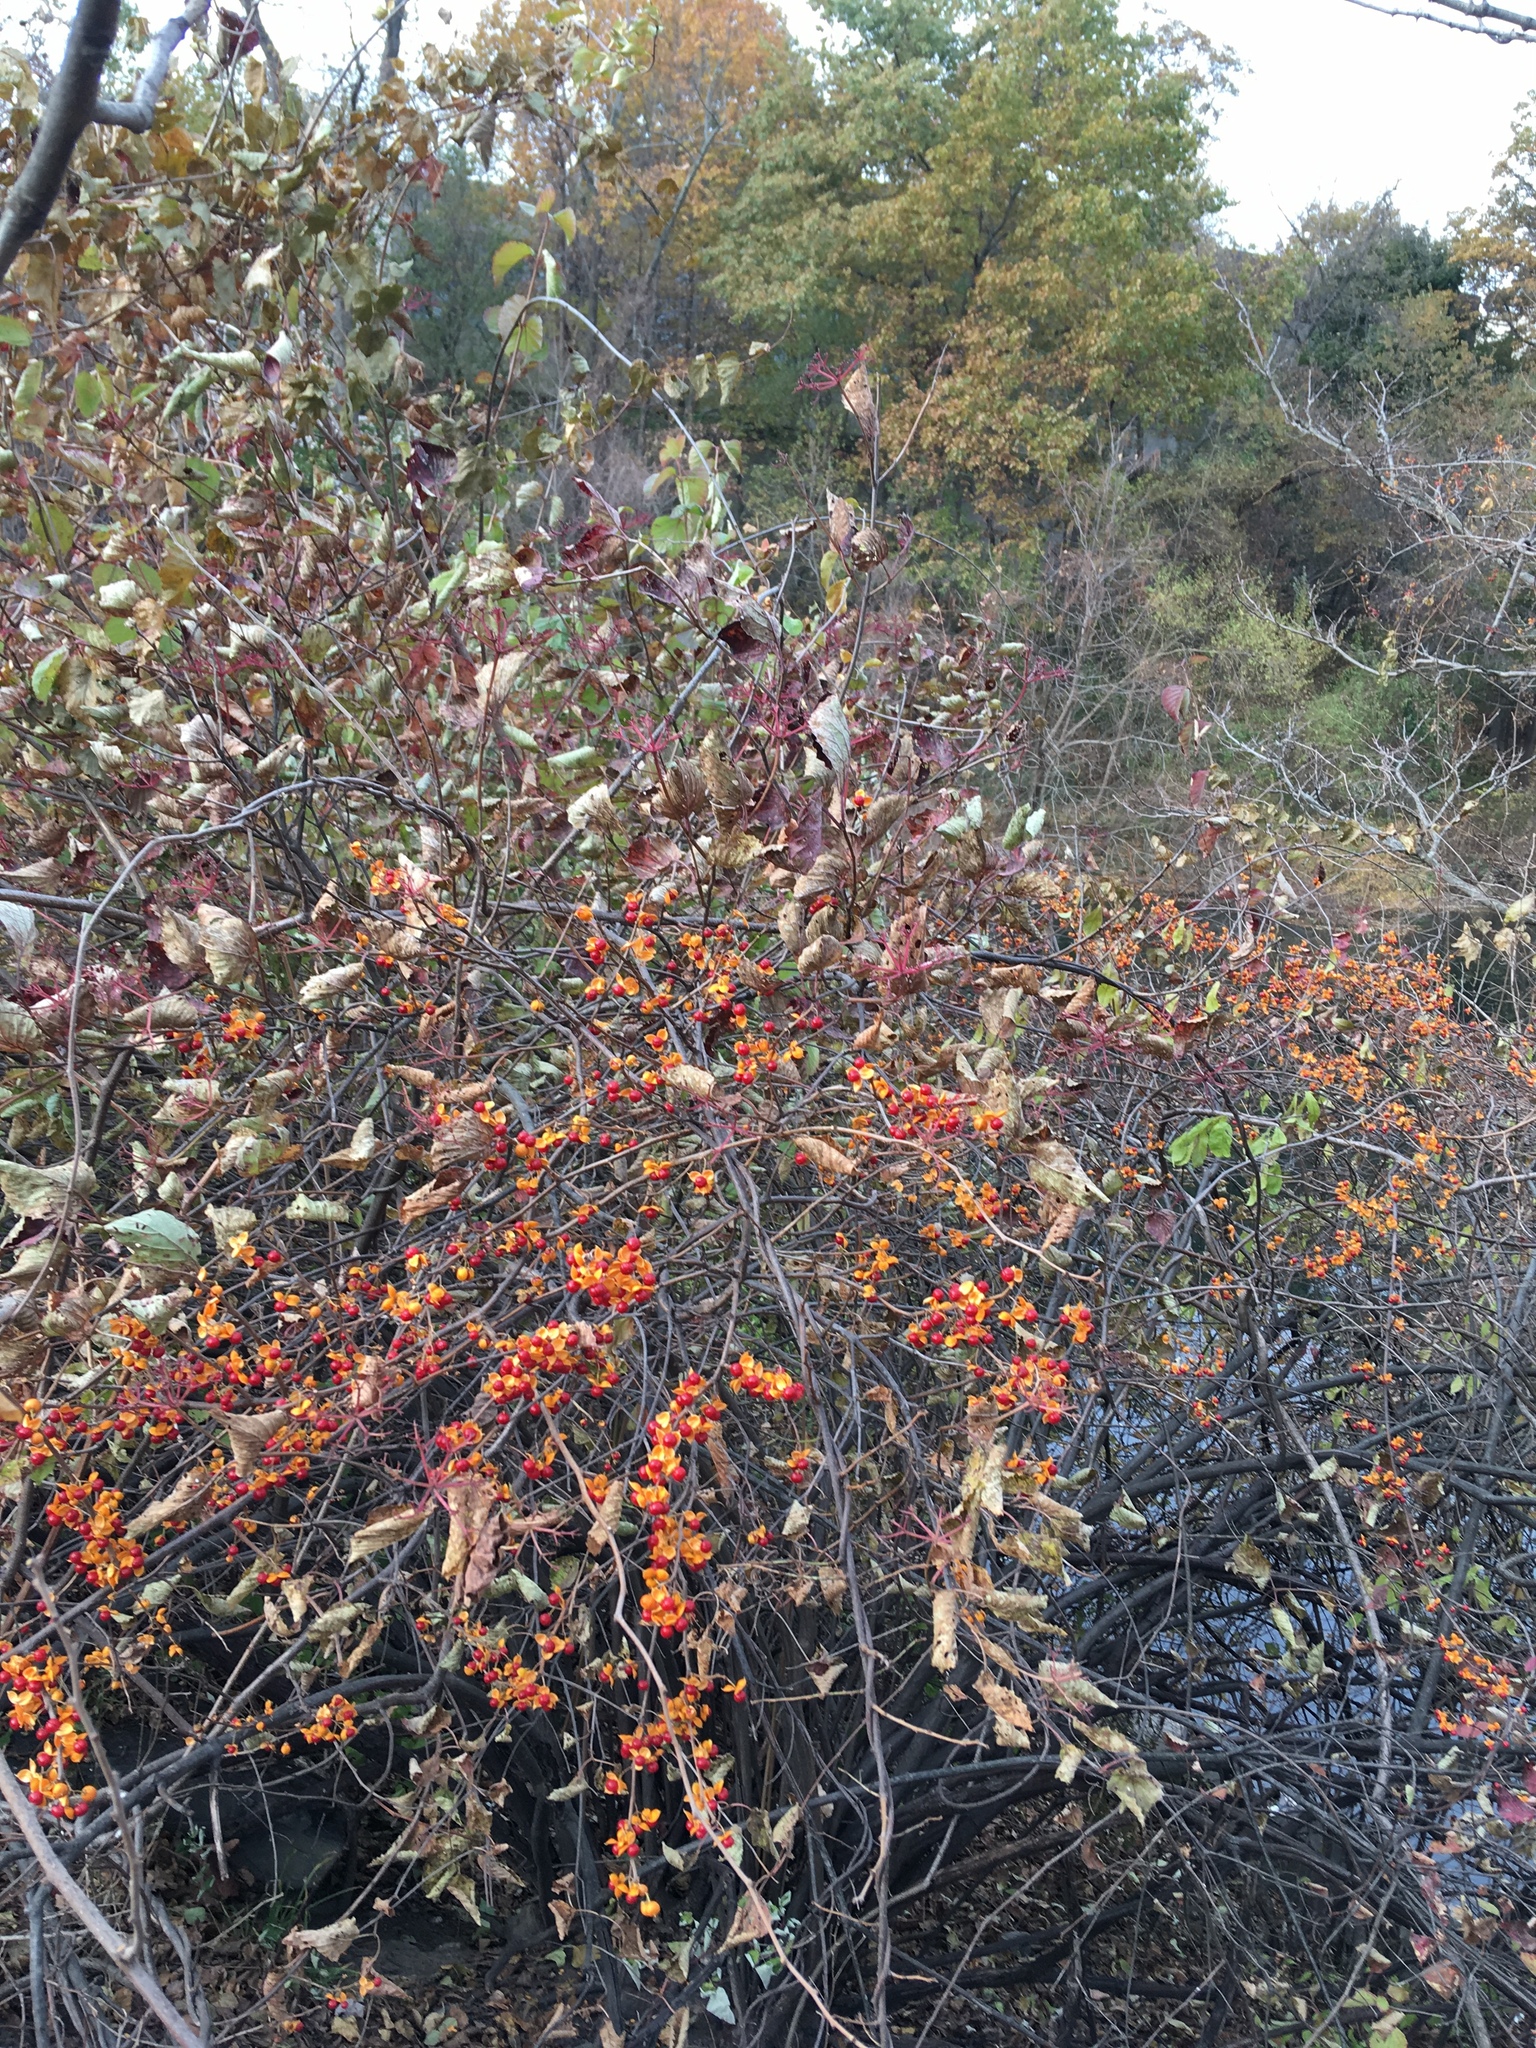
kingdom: Plantae
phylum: Tracheophyta
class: Magnoliopsida
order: Celastrales
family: Celastraceae
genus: Celastrus
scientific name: Celastrus orbiculatus
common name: Oriental bittersweet
